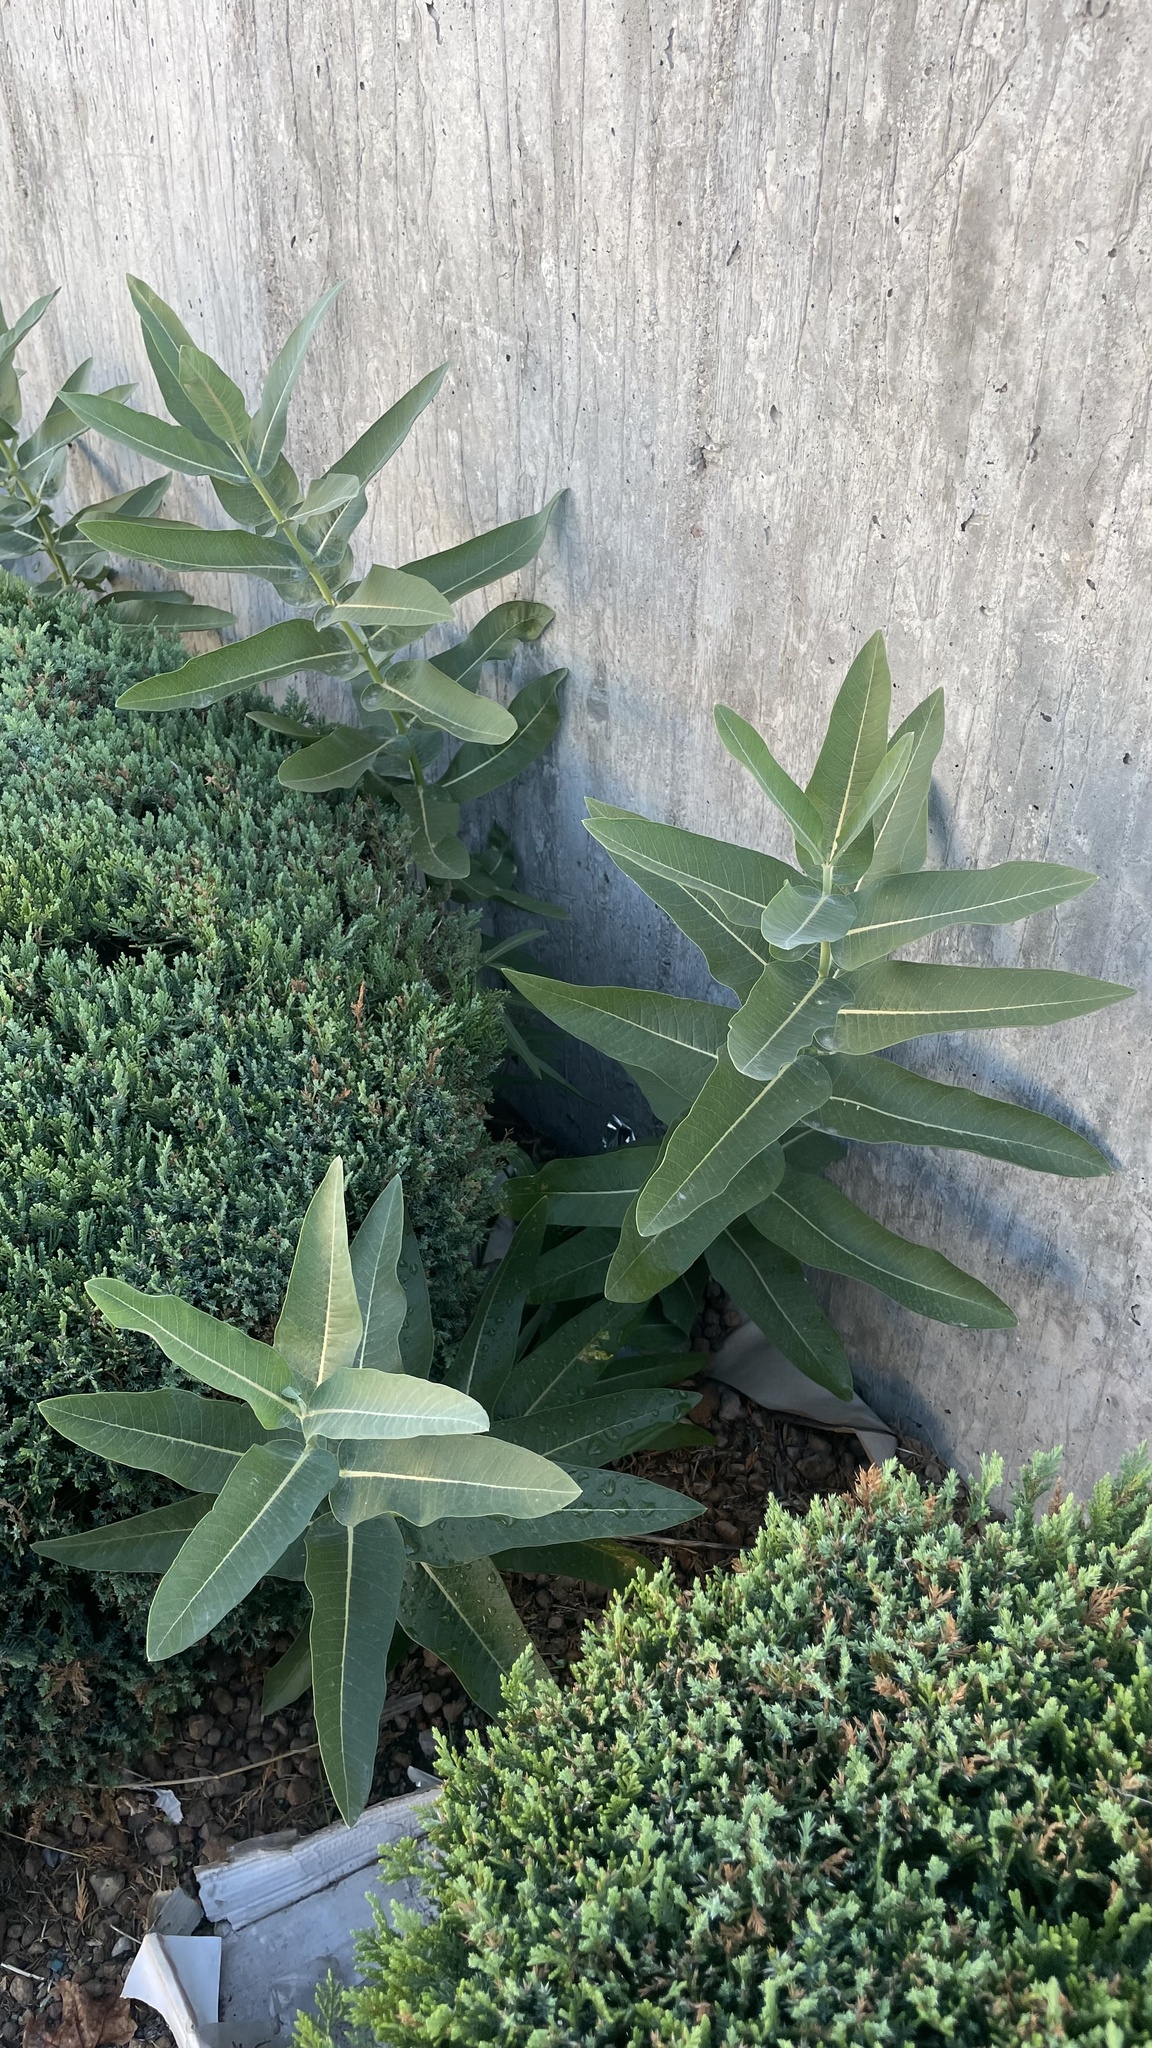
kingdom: Plantae
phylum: Tracheophyta
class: Magnoliopsida
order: Gentianales
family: Apocynaceae
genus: Asclepias
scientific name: Asclepias speciosa
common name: Showy milkweed
